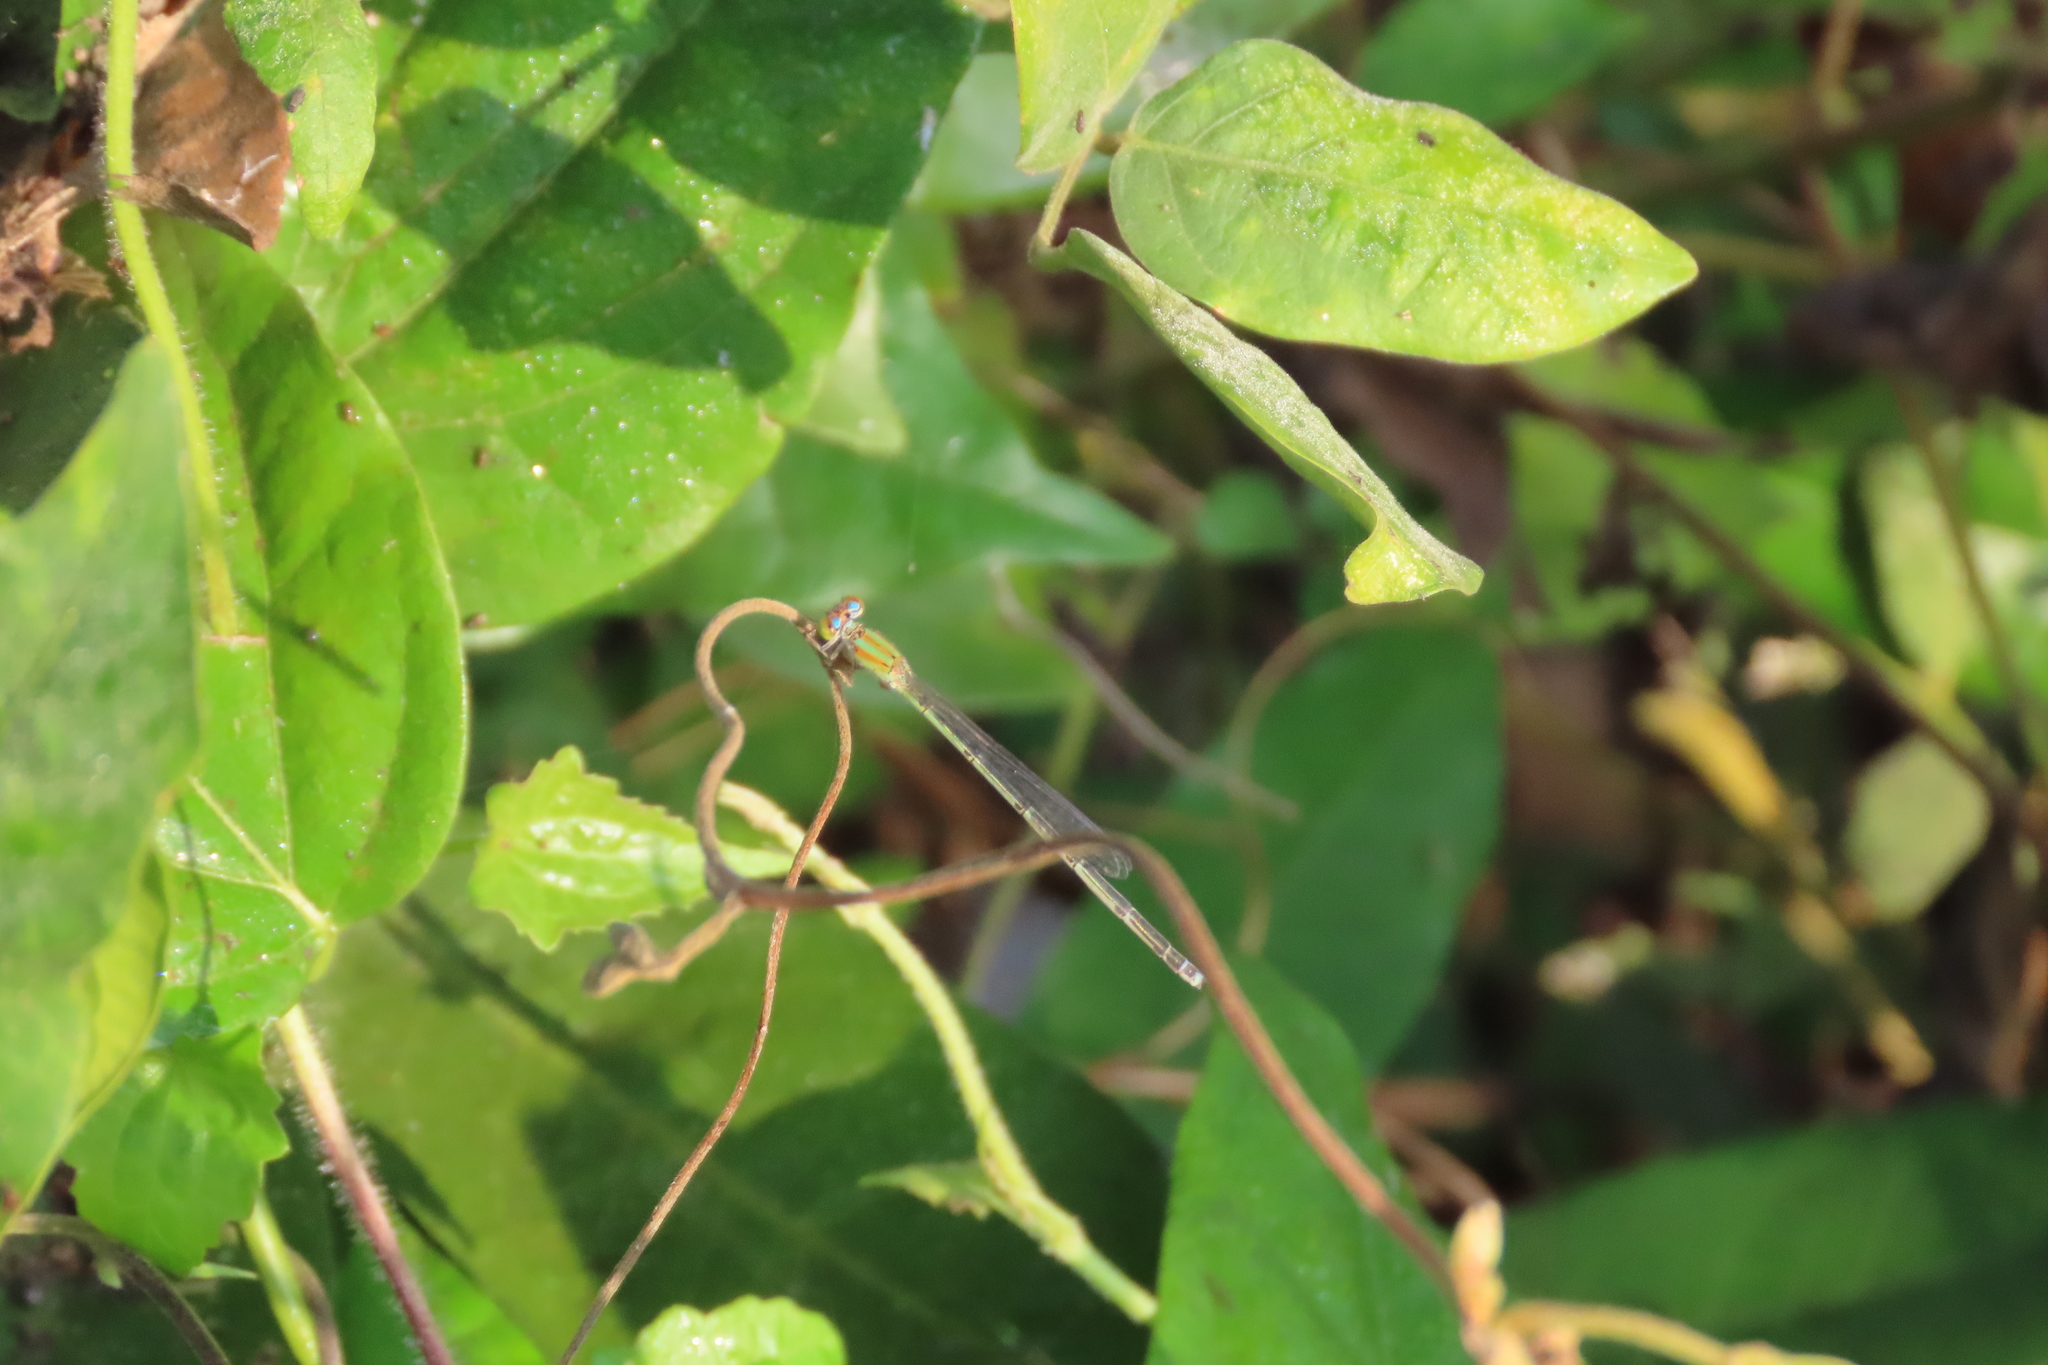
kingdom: Animalia
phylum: Arthropoda
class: Insecta
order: Odonata
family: Coenagrionidae
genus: Pseudagrion
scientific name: Pseudagrion microcephalum
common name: Blue riverdamsel
